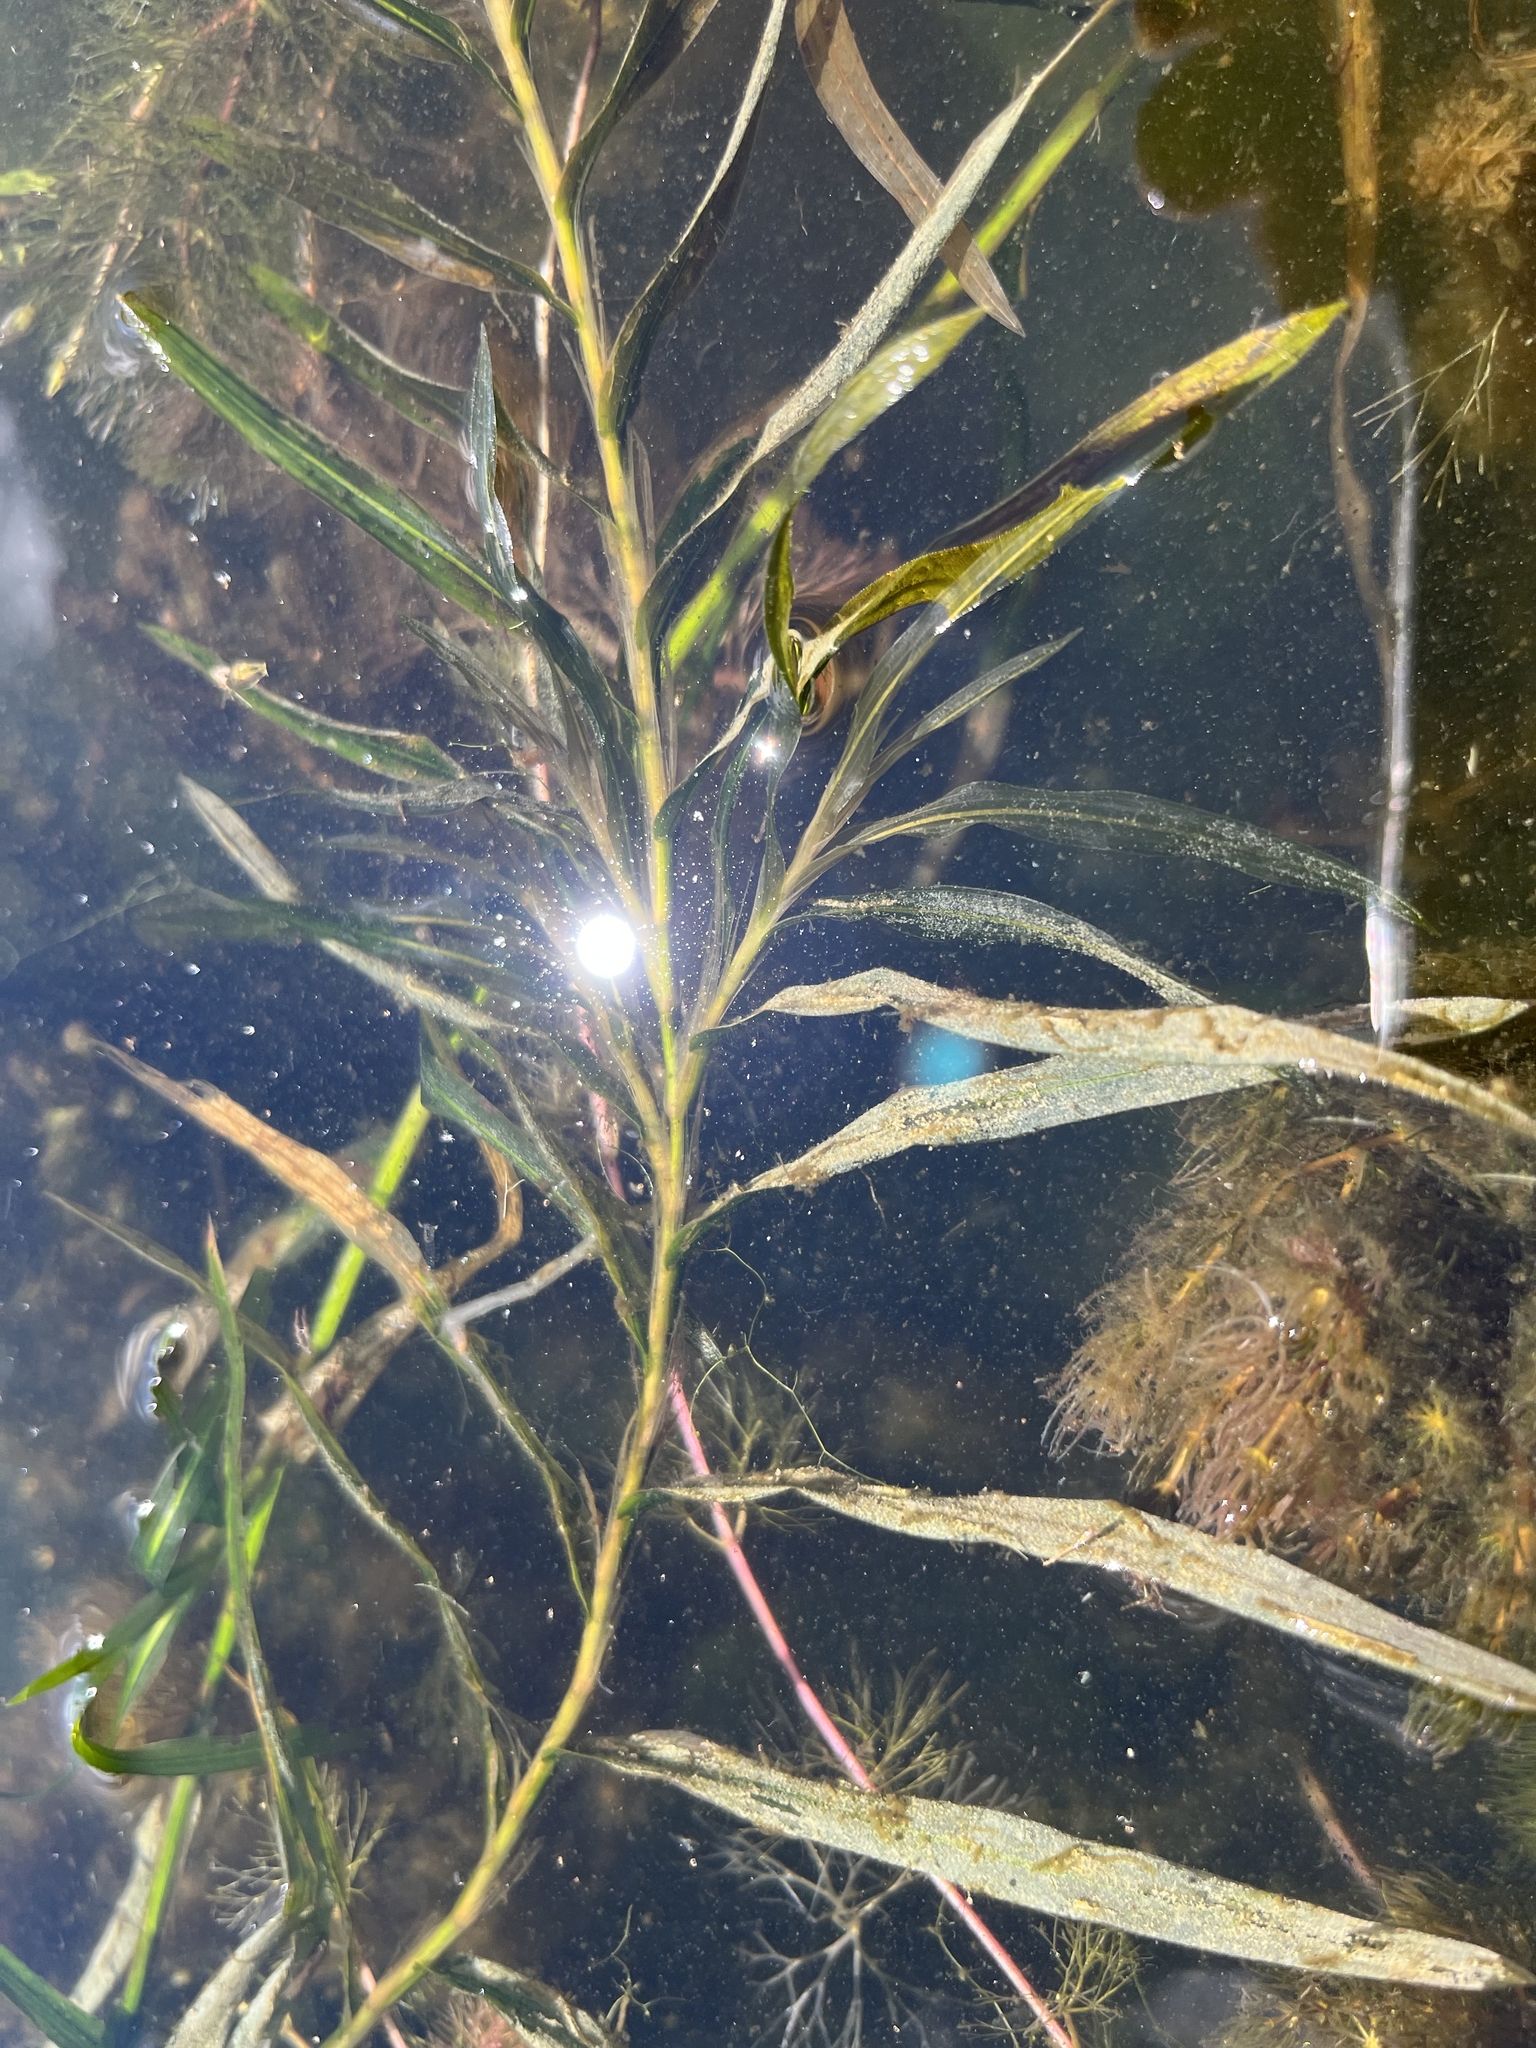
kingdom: Plantae
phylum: Tracheophyta
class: Liliopsida
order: Alismatales
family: Potamogetonaceae
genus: Potamogeton
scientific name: Potamogeton robbinsii
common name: Fern pondweed
